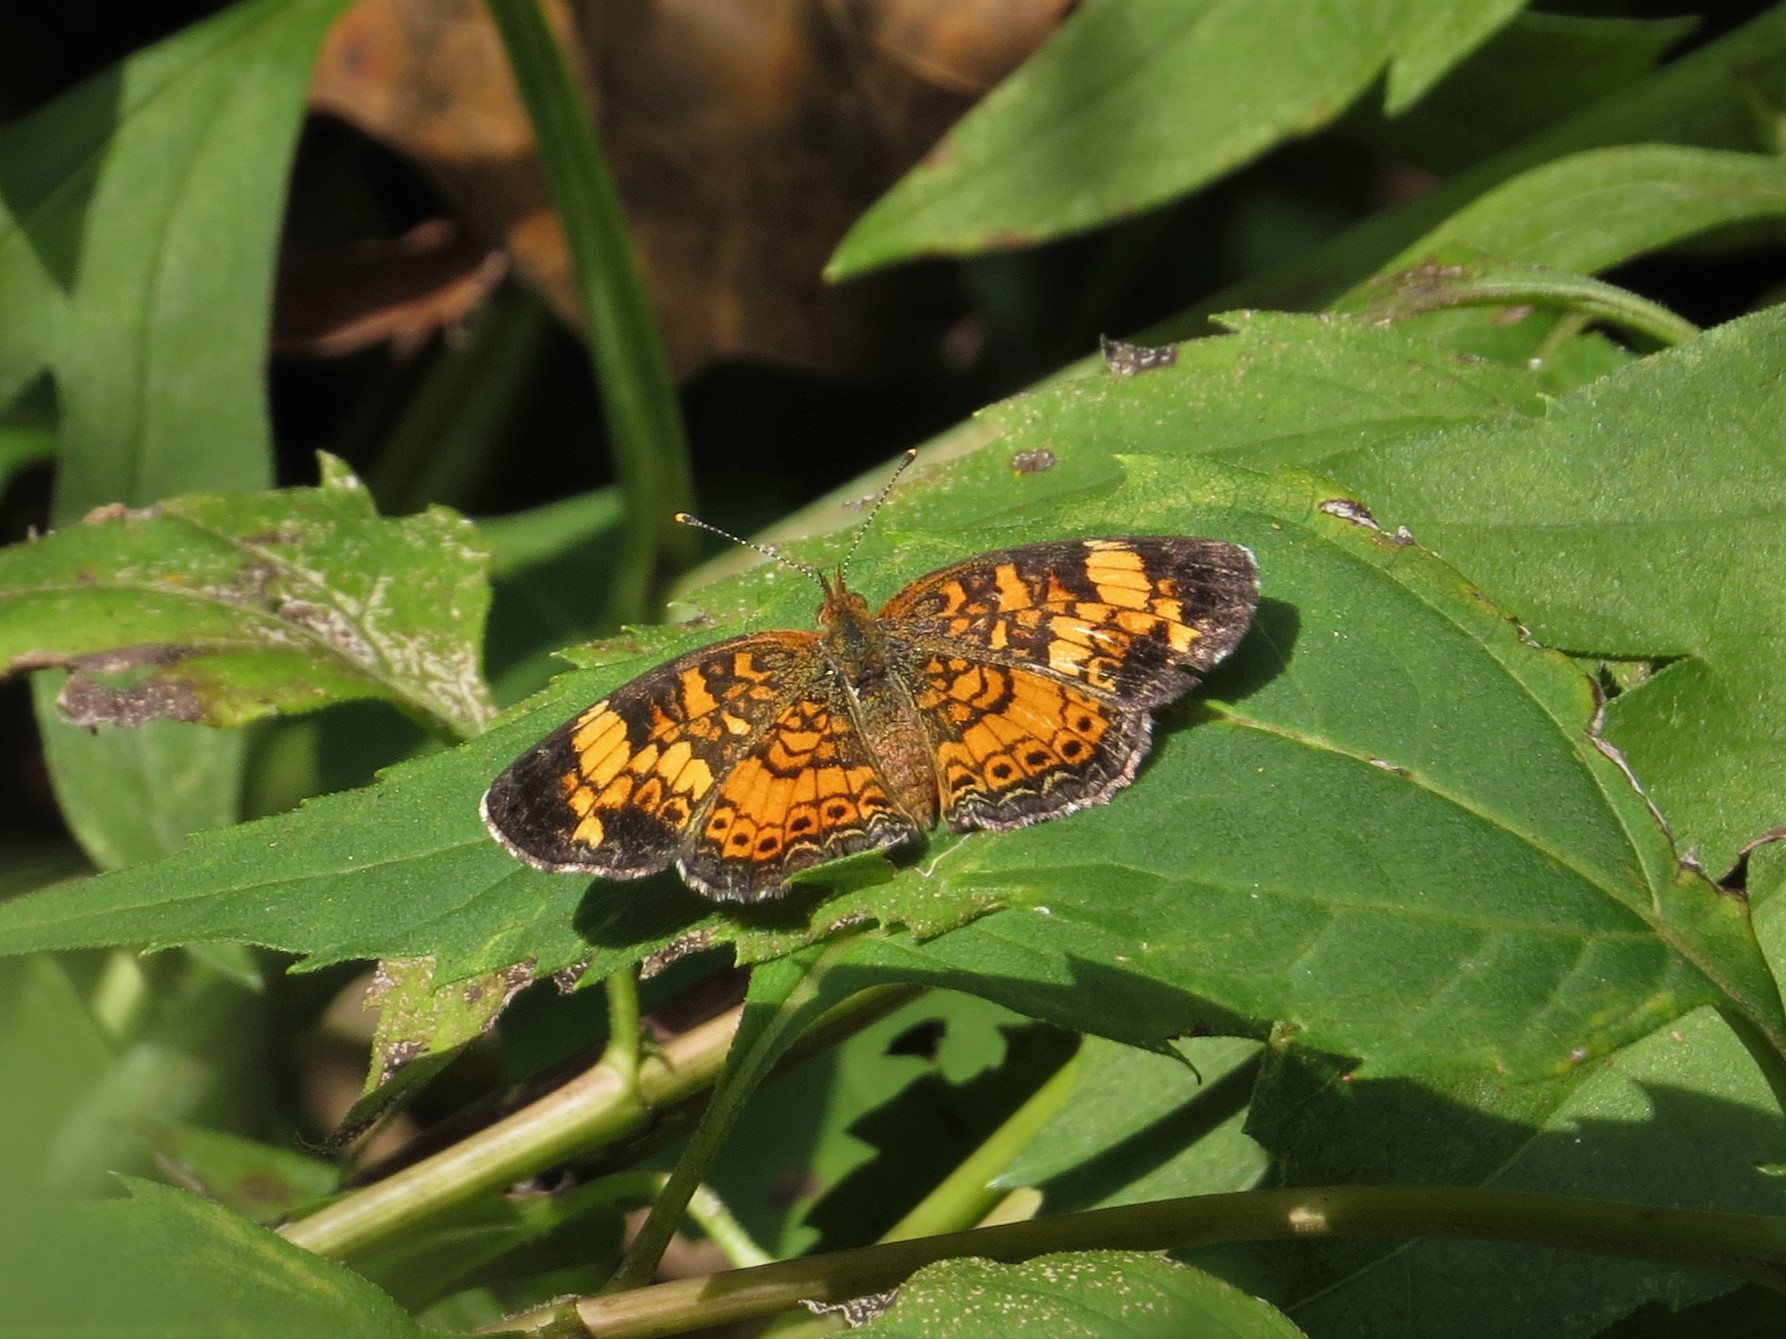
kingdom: Animalia
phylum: Arthropoda
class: Insecta
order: Lepidoptera
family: Nymphalidae
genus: Phyciodes
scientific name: Phyciodes tharos
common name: Pearl crescent
